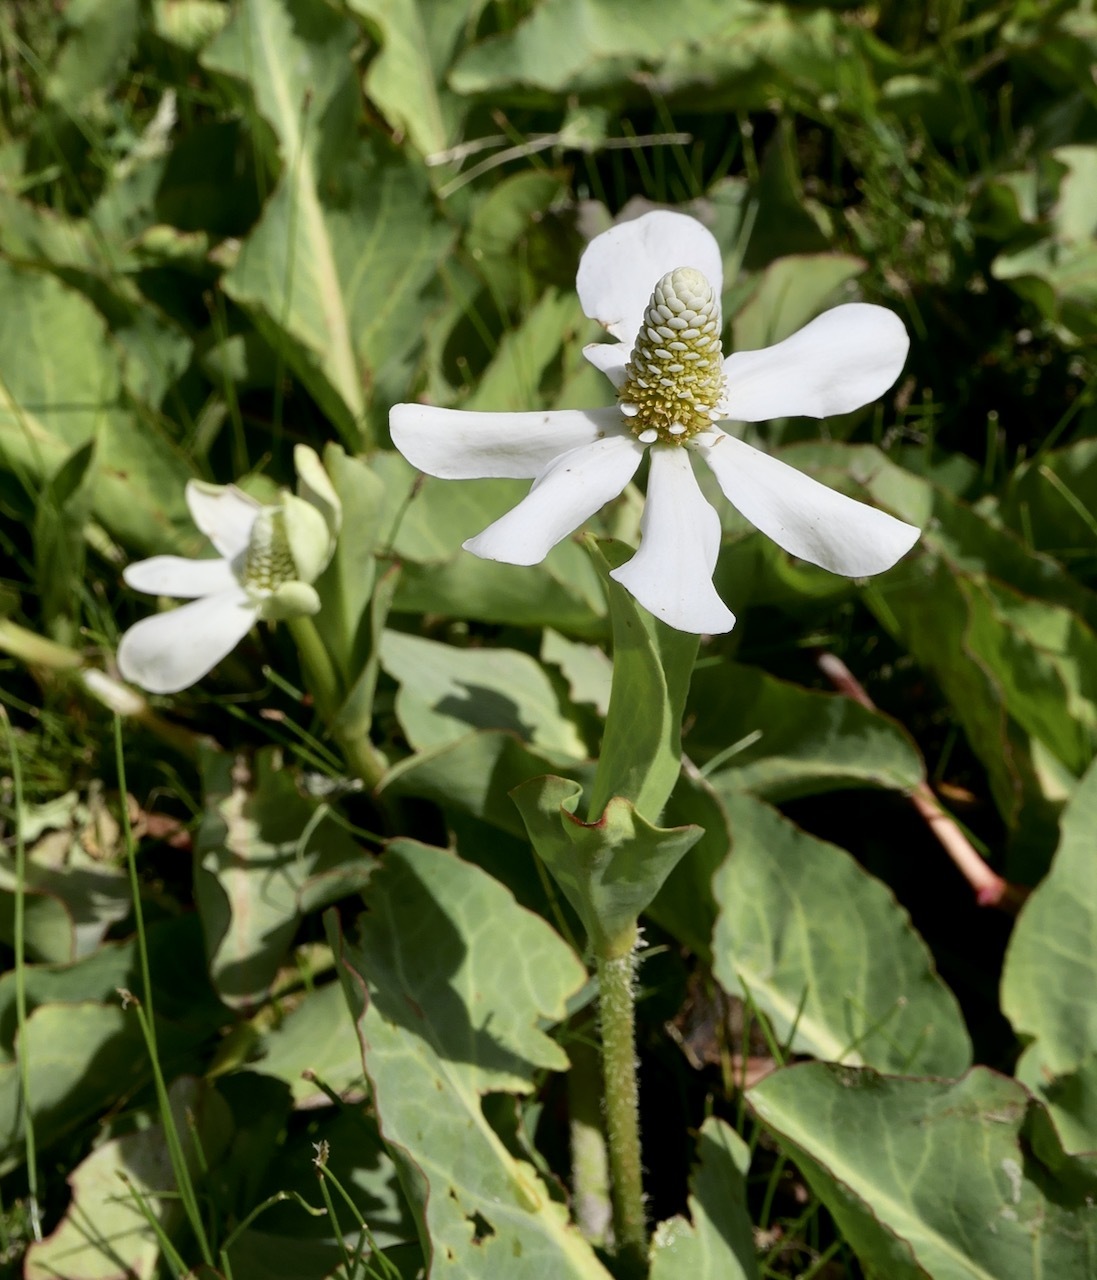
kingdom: Plantae
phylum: Tracheophyta
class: Magnoliopsida
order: Piperales
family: Saururaceae
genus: Anemopsis
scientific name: Anemopsis californica
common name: Apache-beads
